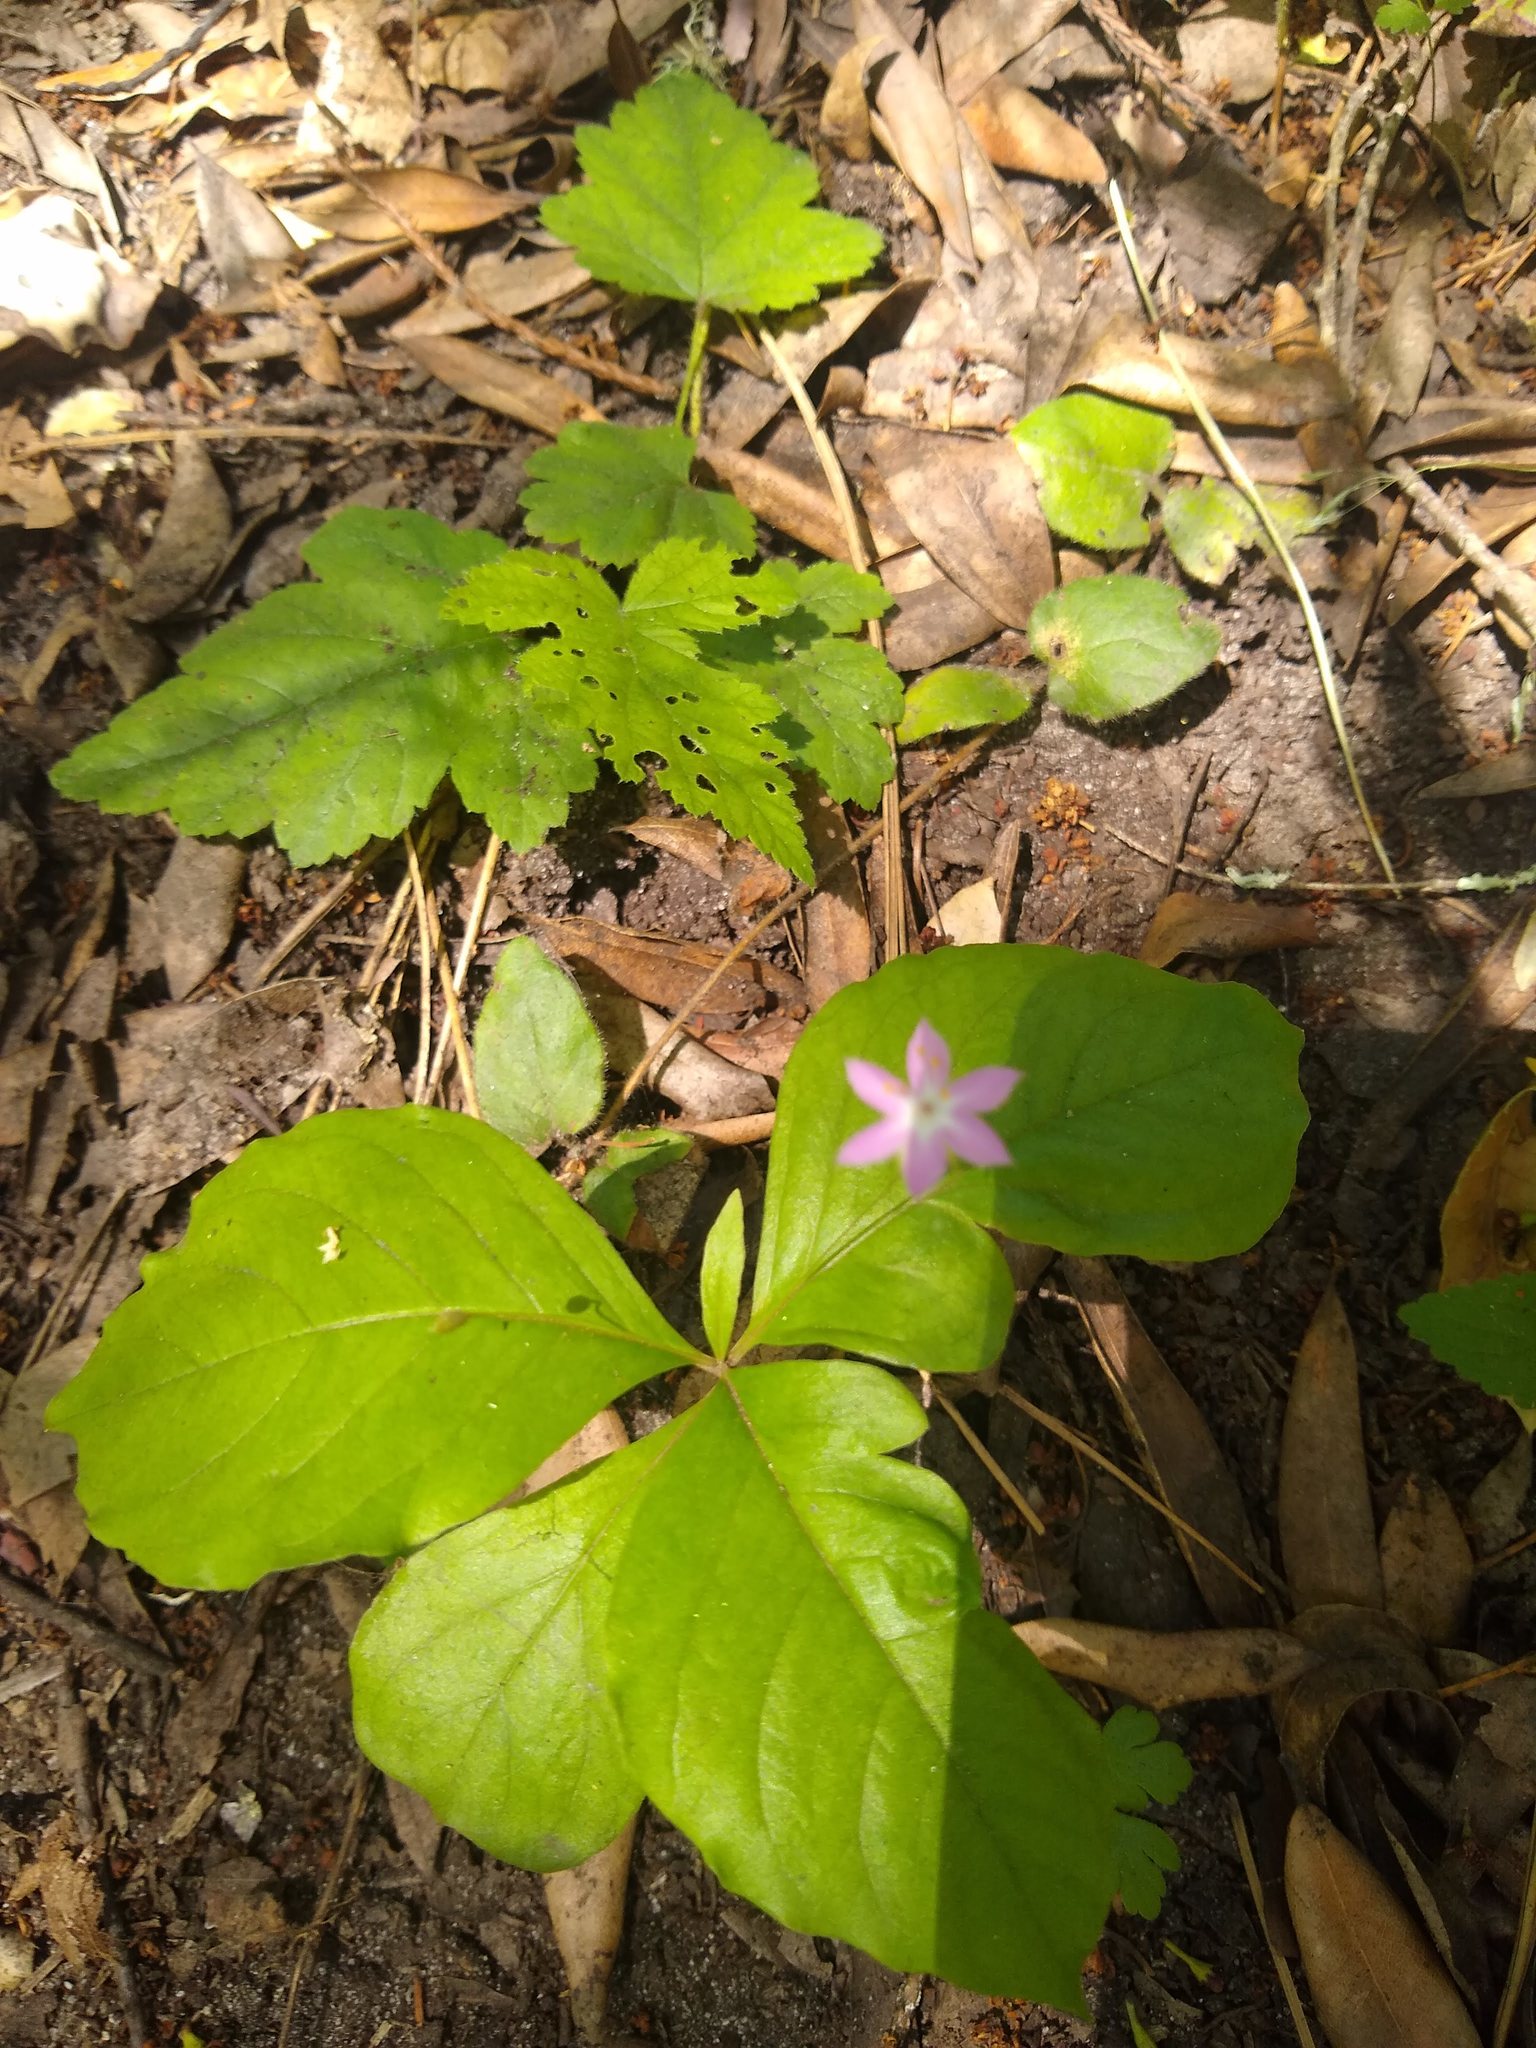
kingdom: Plantae
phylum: Tracheophyta
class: Magnoliopsida
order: Ericales
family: Primulaceae
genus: Lysimachia
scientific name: Lysimachia latifolia
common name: Pacific starflower
